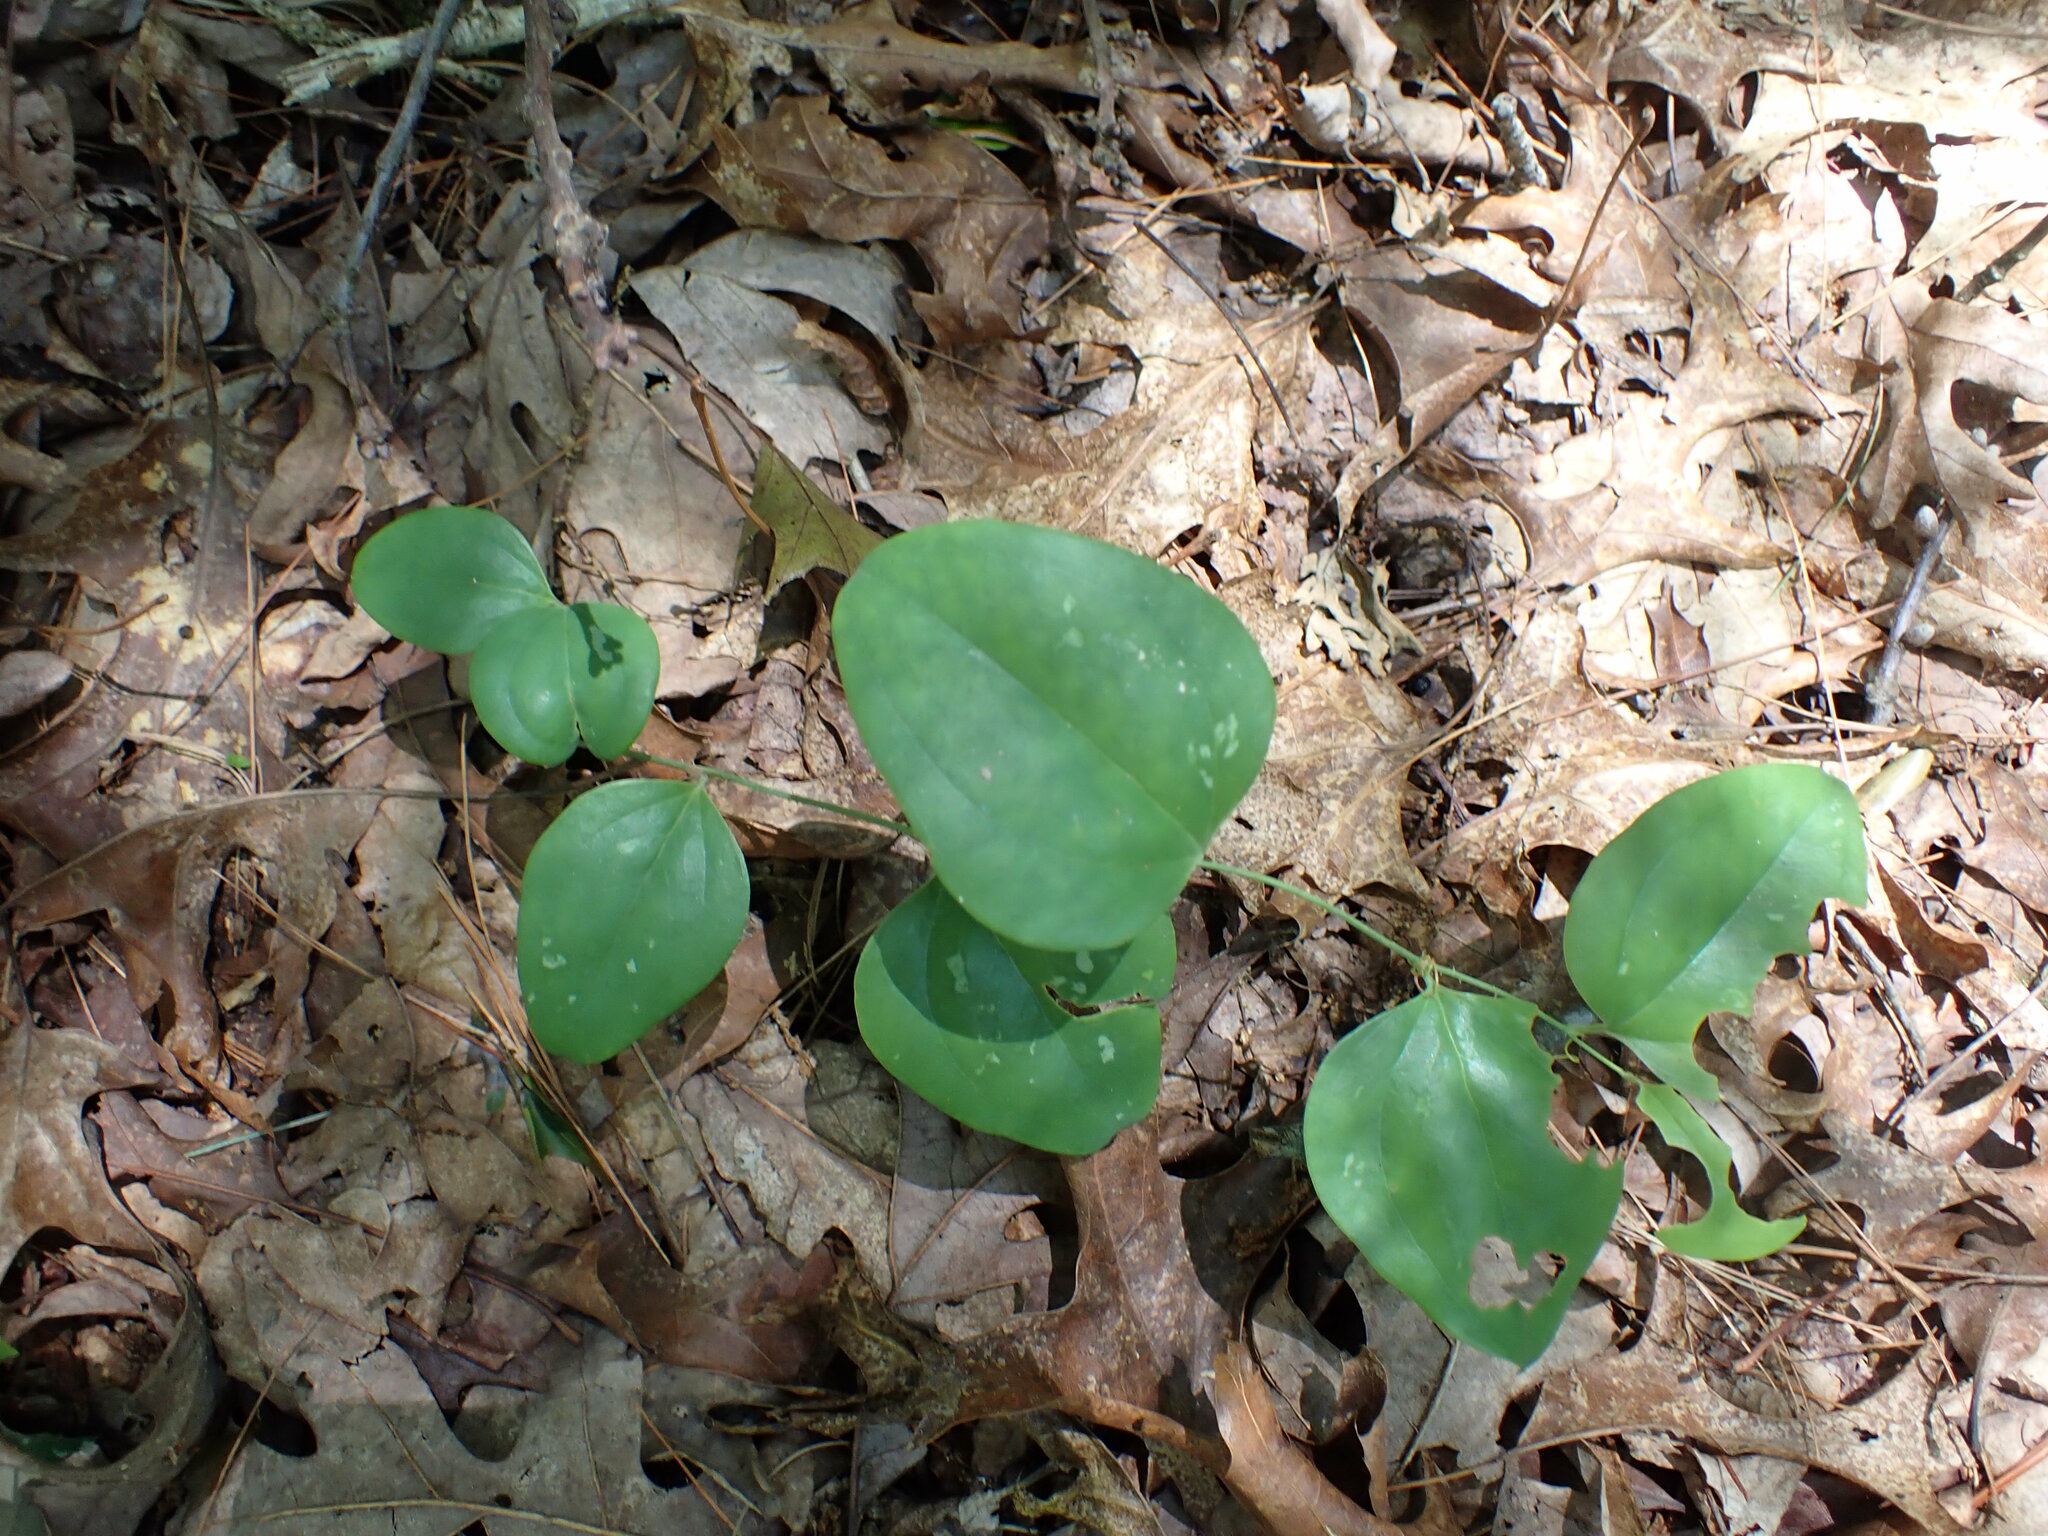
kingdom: Plantae
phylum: Tracheophyta
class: Liliopsida
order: Liliales
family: Smilacaceae
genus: Smilax
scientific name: Smilax glauca
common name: Cat greenbrier
